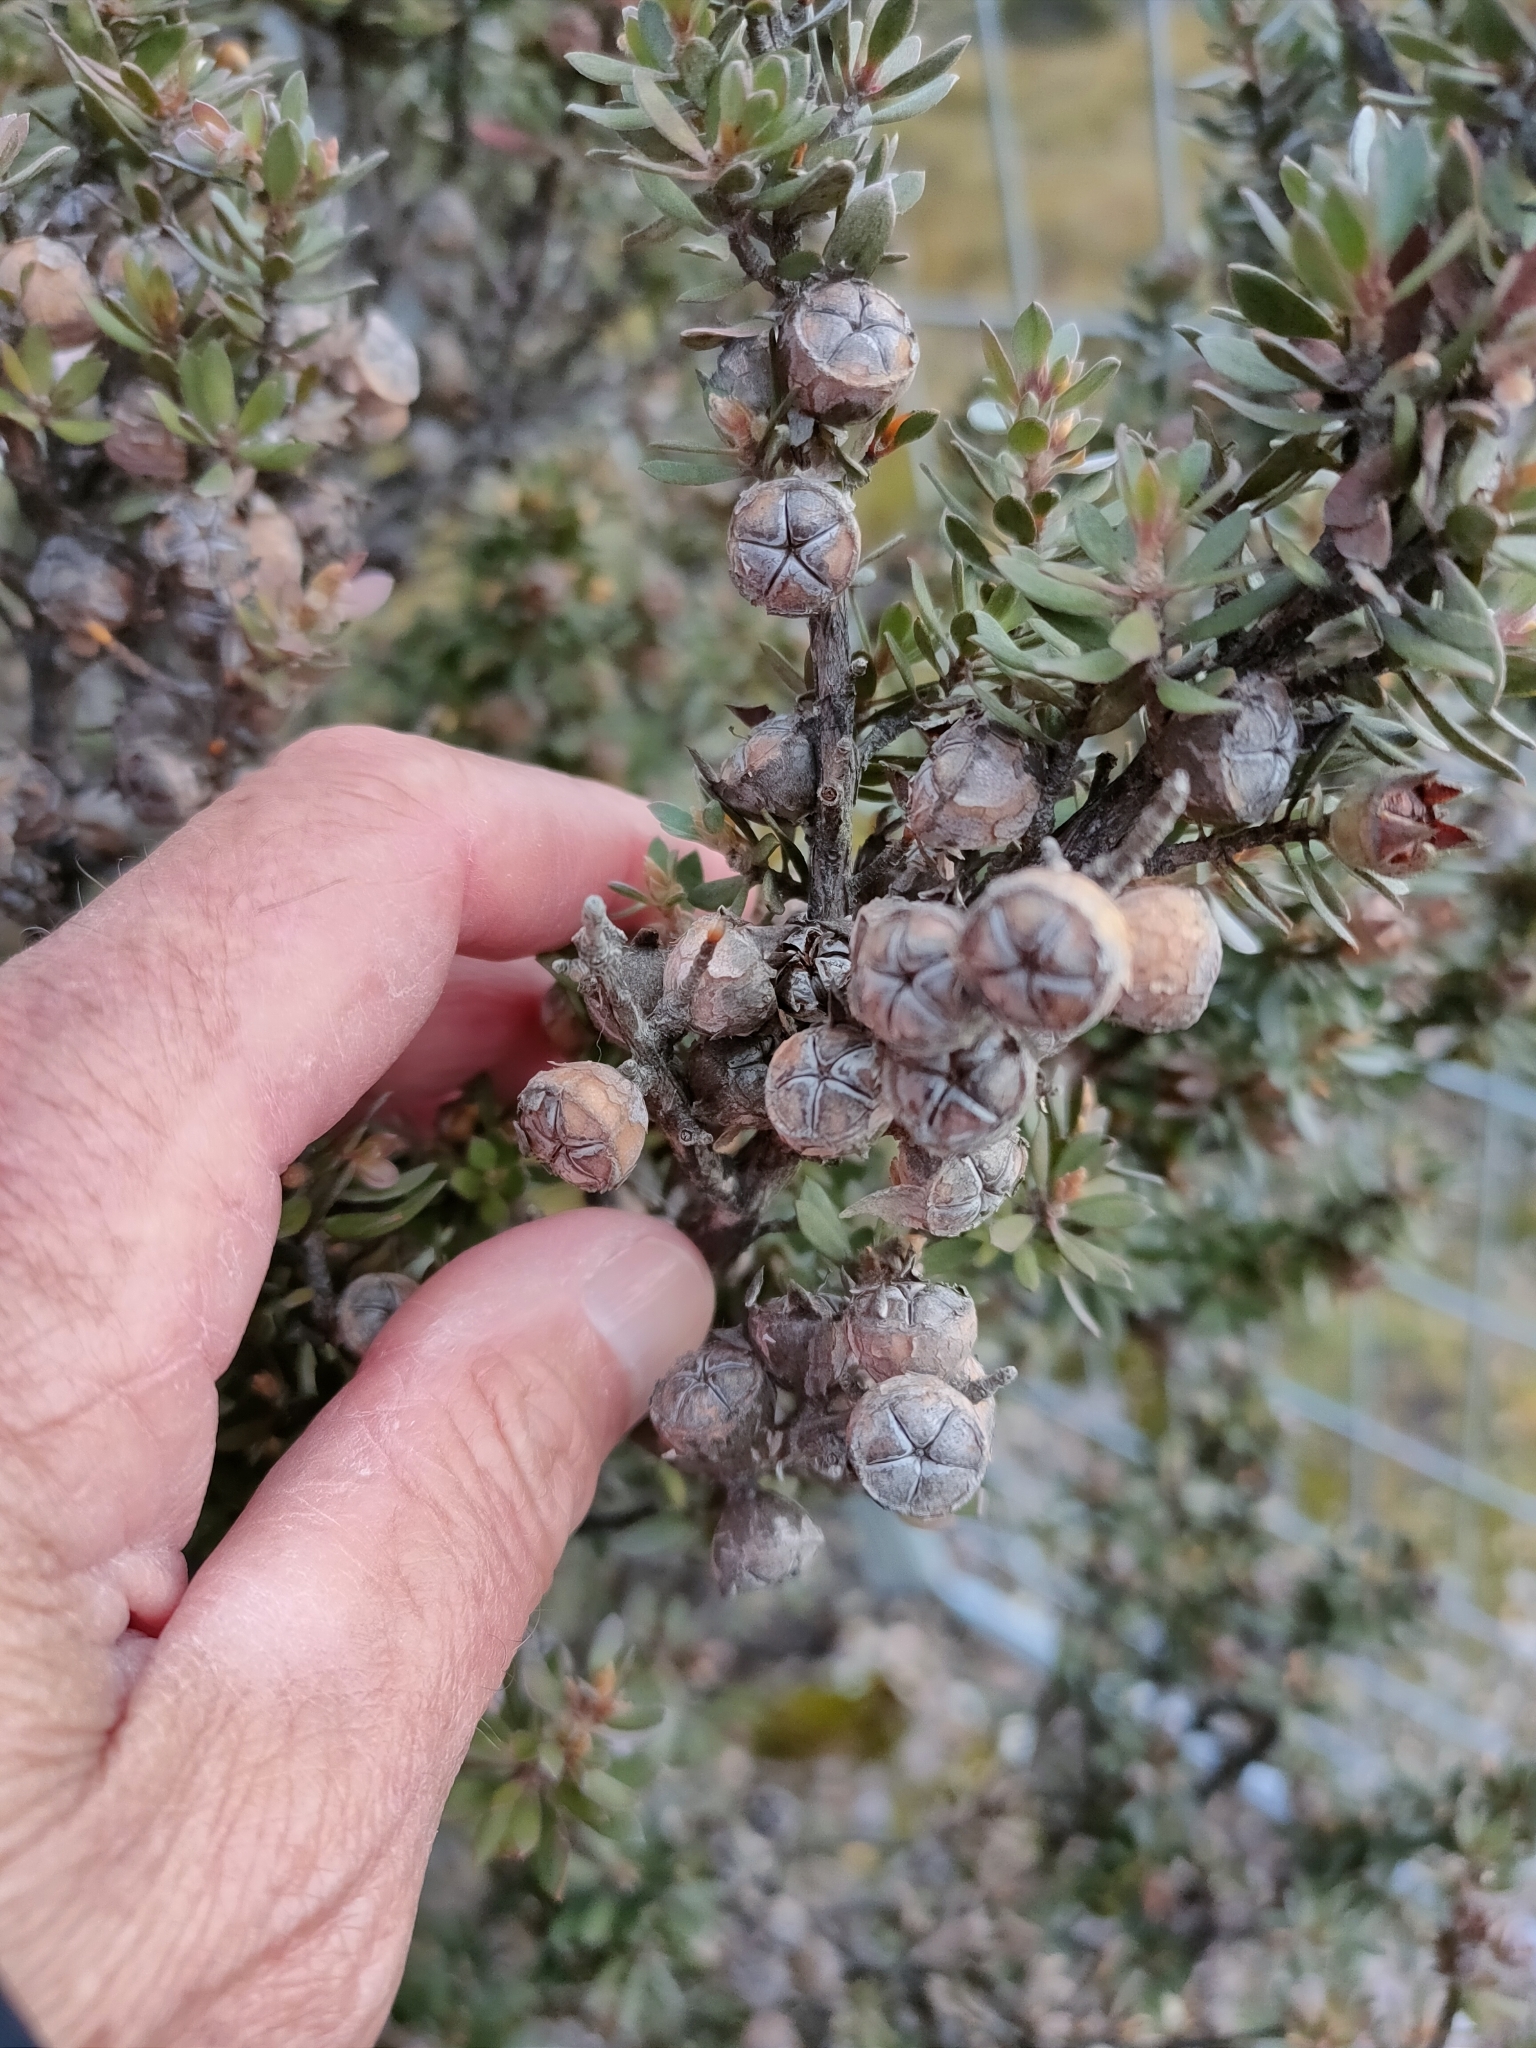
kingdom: Plantae
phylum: Tracheophyta
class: Magnoliopsida
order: Myrtales
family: Myrtaceae
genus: Leptospermum
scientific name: Leptospermum lanigerum
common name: Woolly tea-tree
